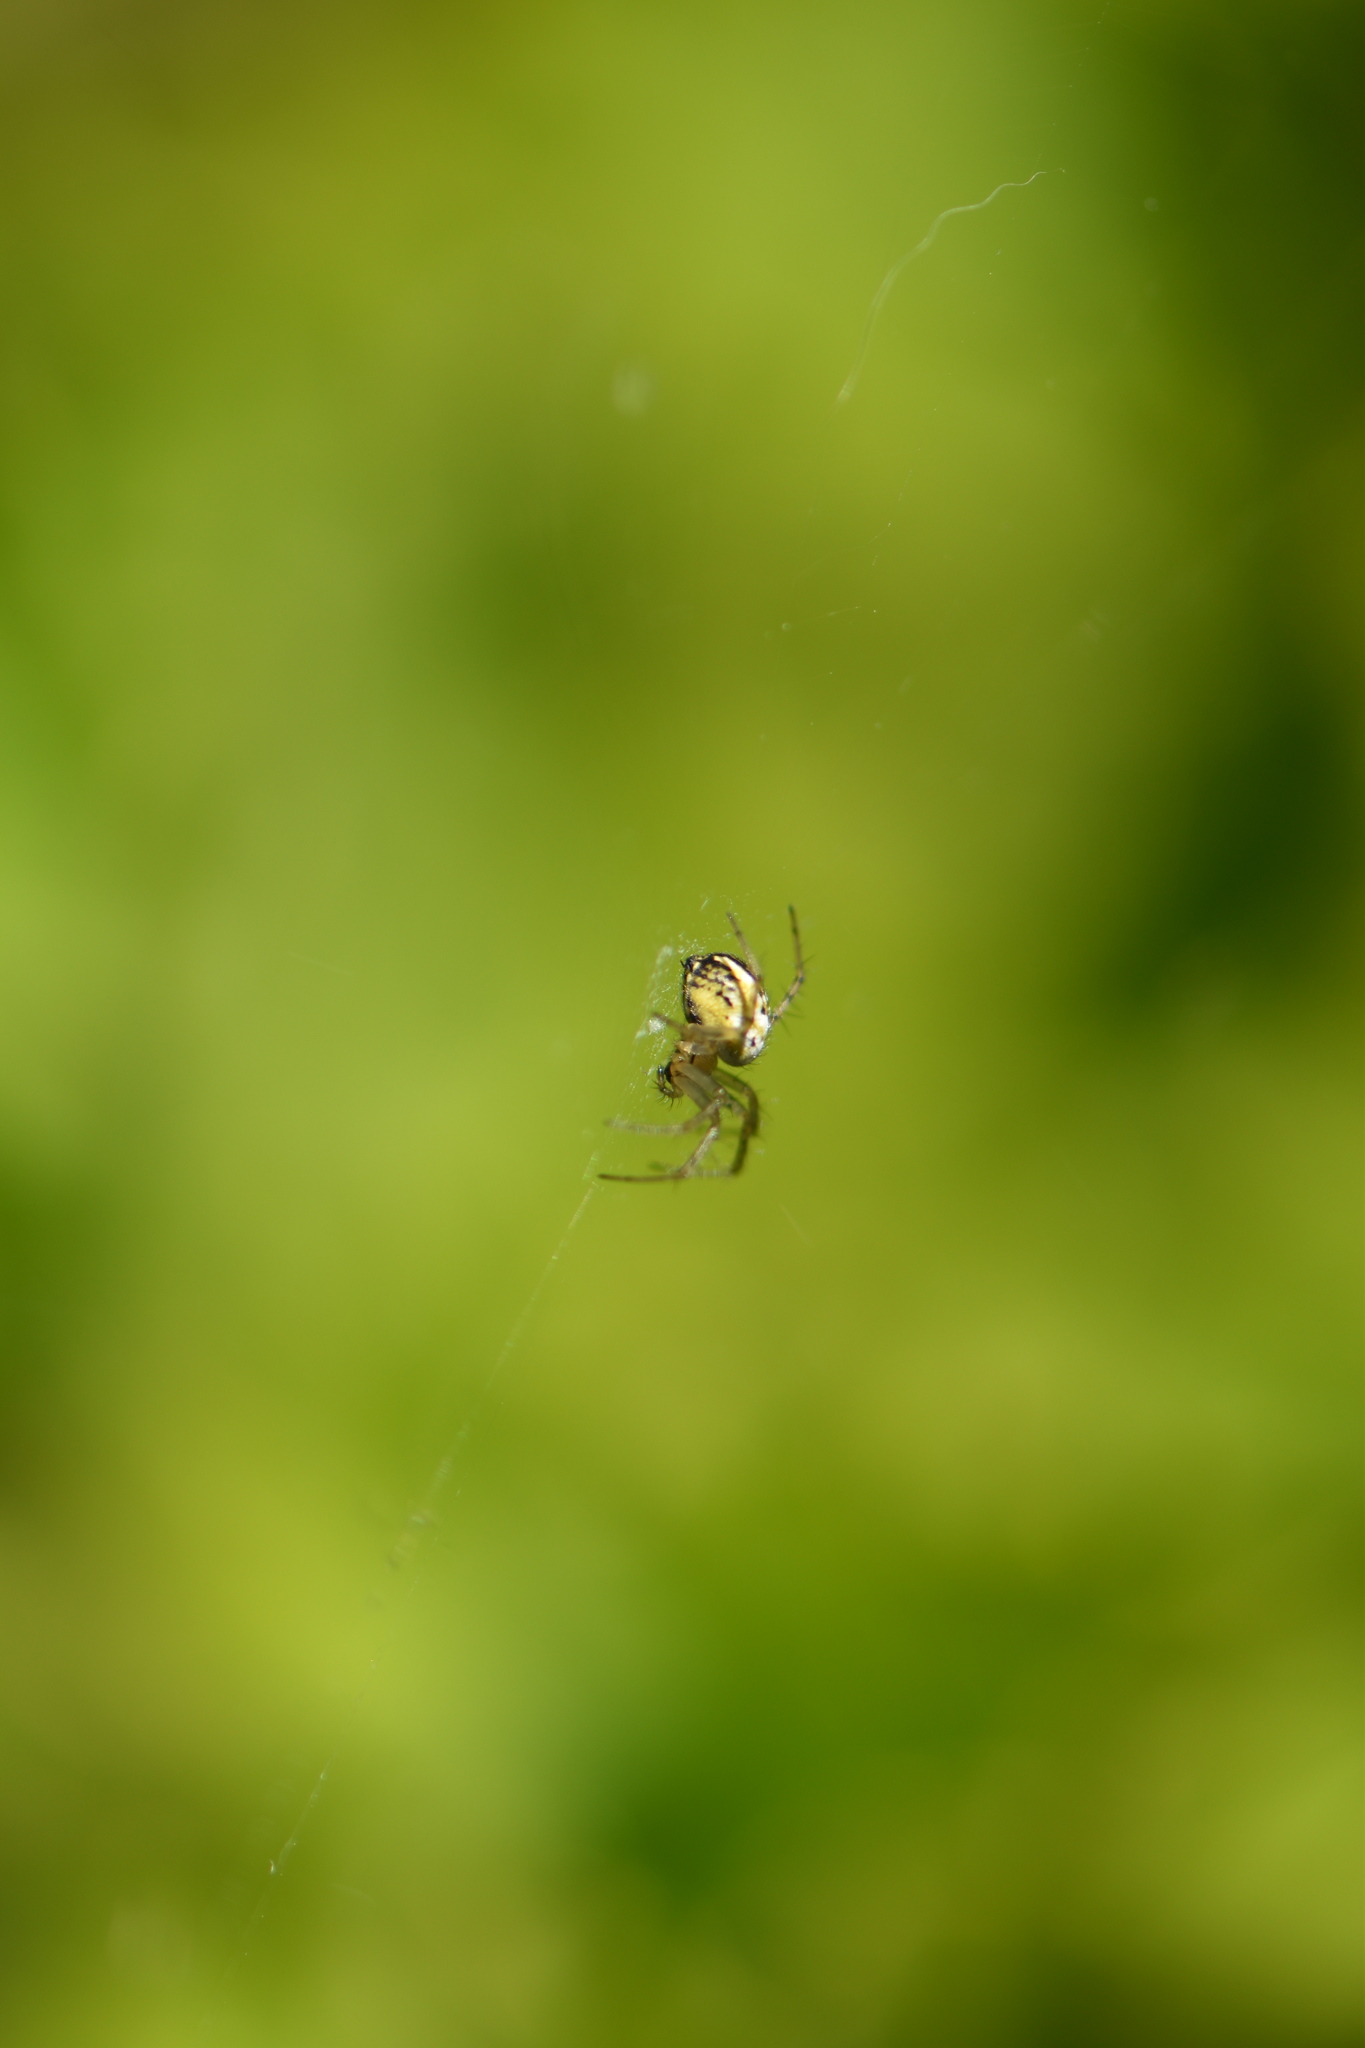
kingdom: Animalia
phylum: Arthropoda
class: Arachnida
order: Araneae
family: Araneidae
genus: Mangora
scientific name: Mangora acalypha
